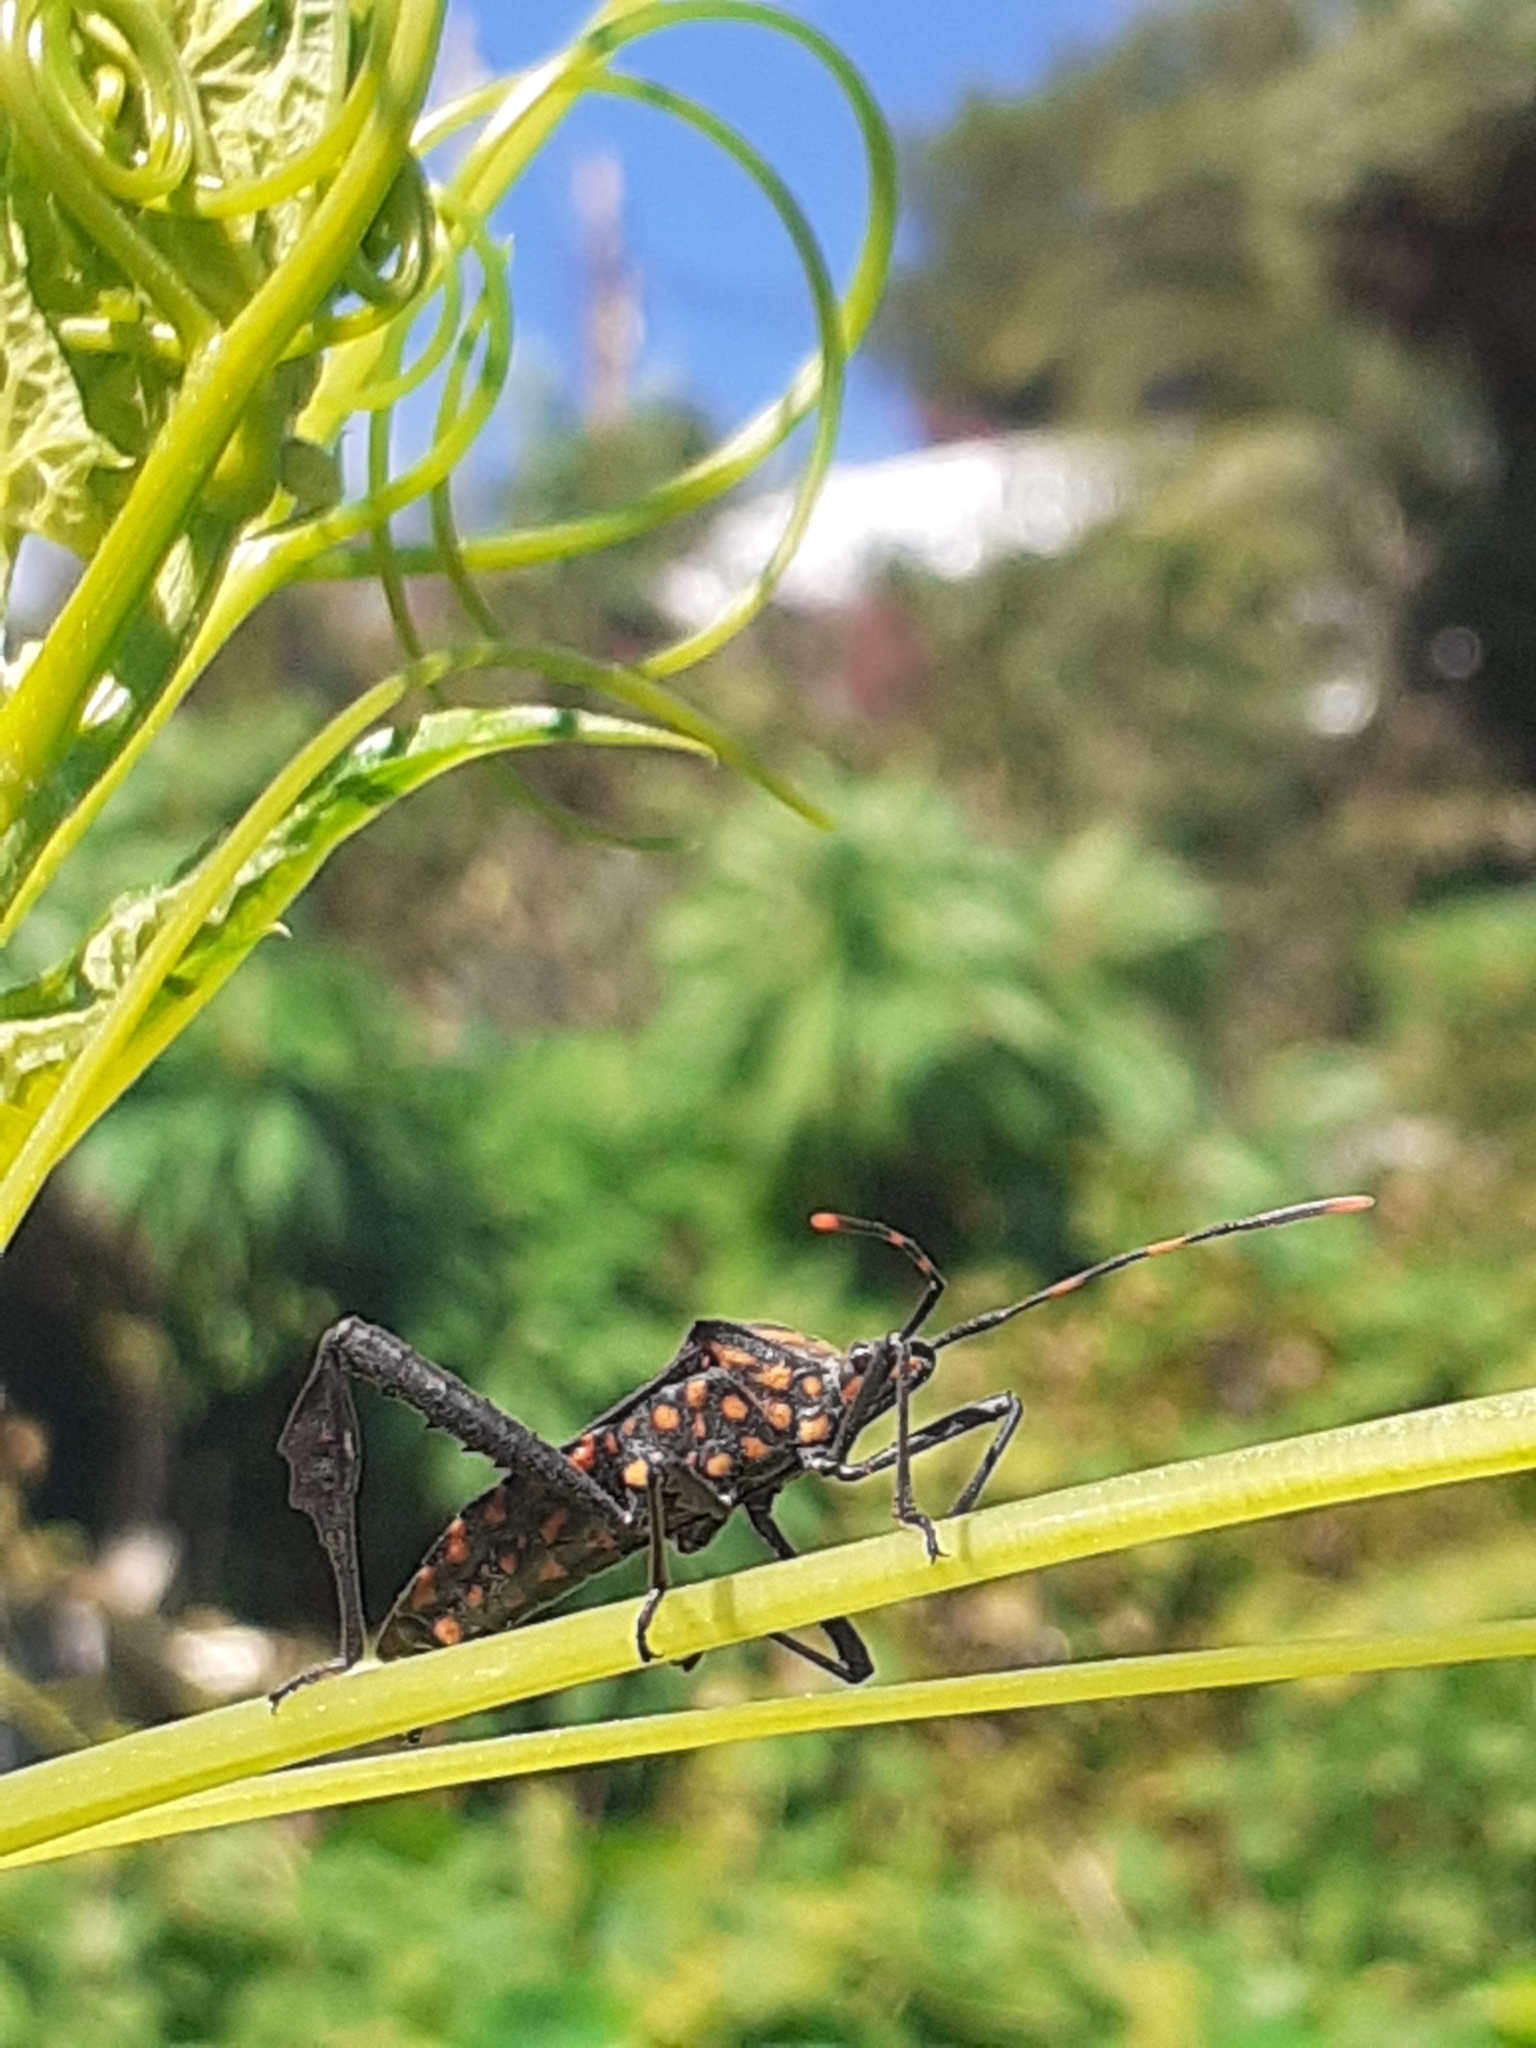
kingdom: Animalia
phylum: Arthropoda
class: Insecta
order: Hemiptera
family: Coreidae
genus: Leptoglossus
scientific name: Leptoglossus gonagra
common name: Citron bug
